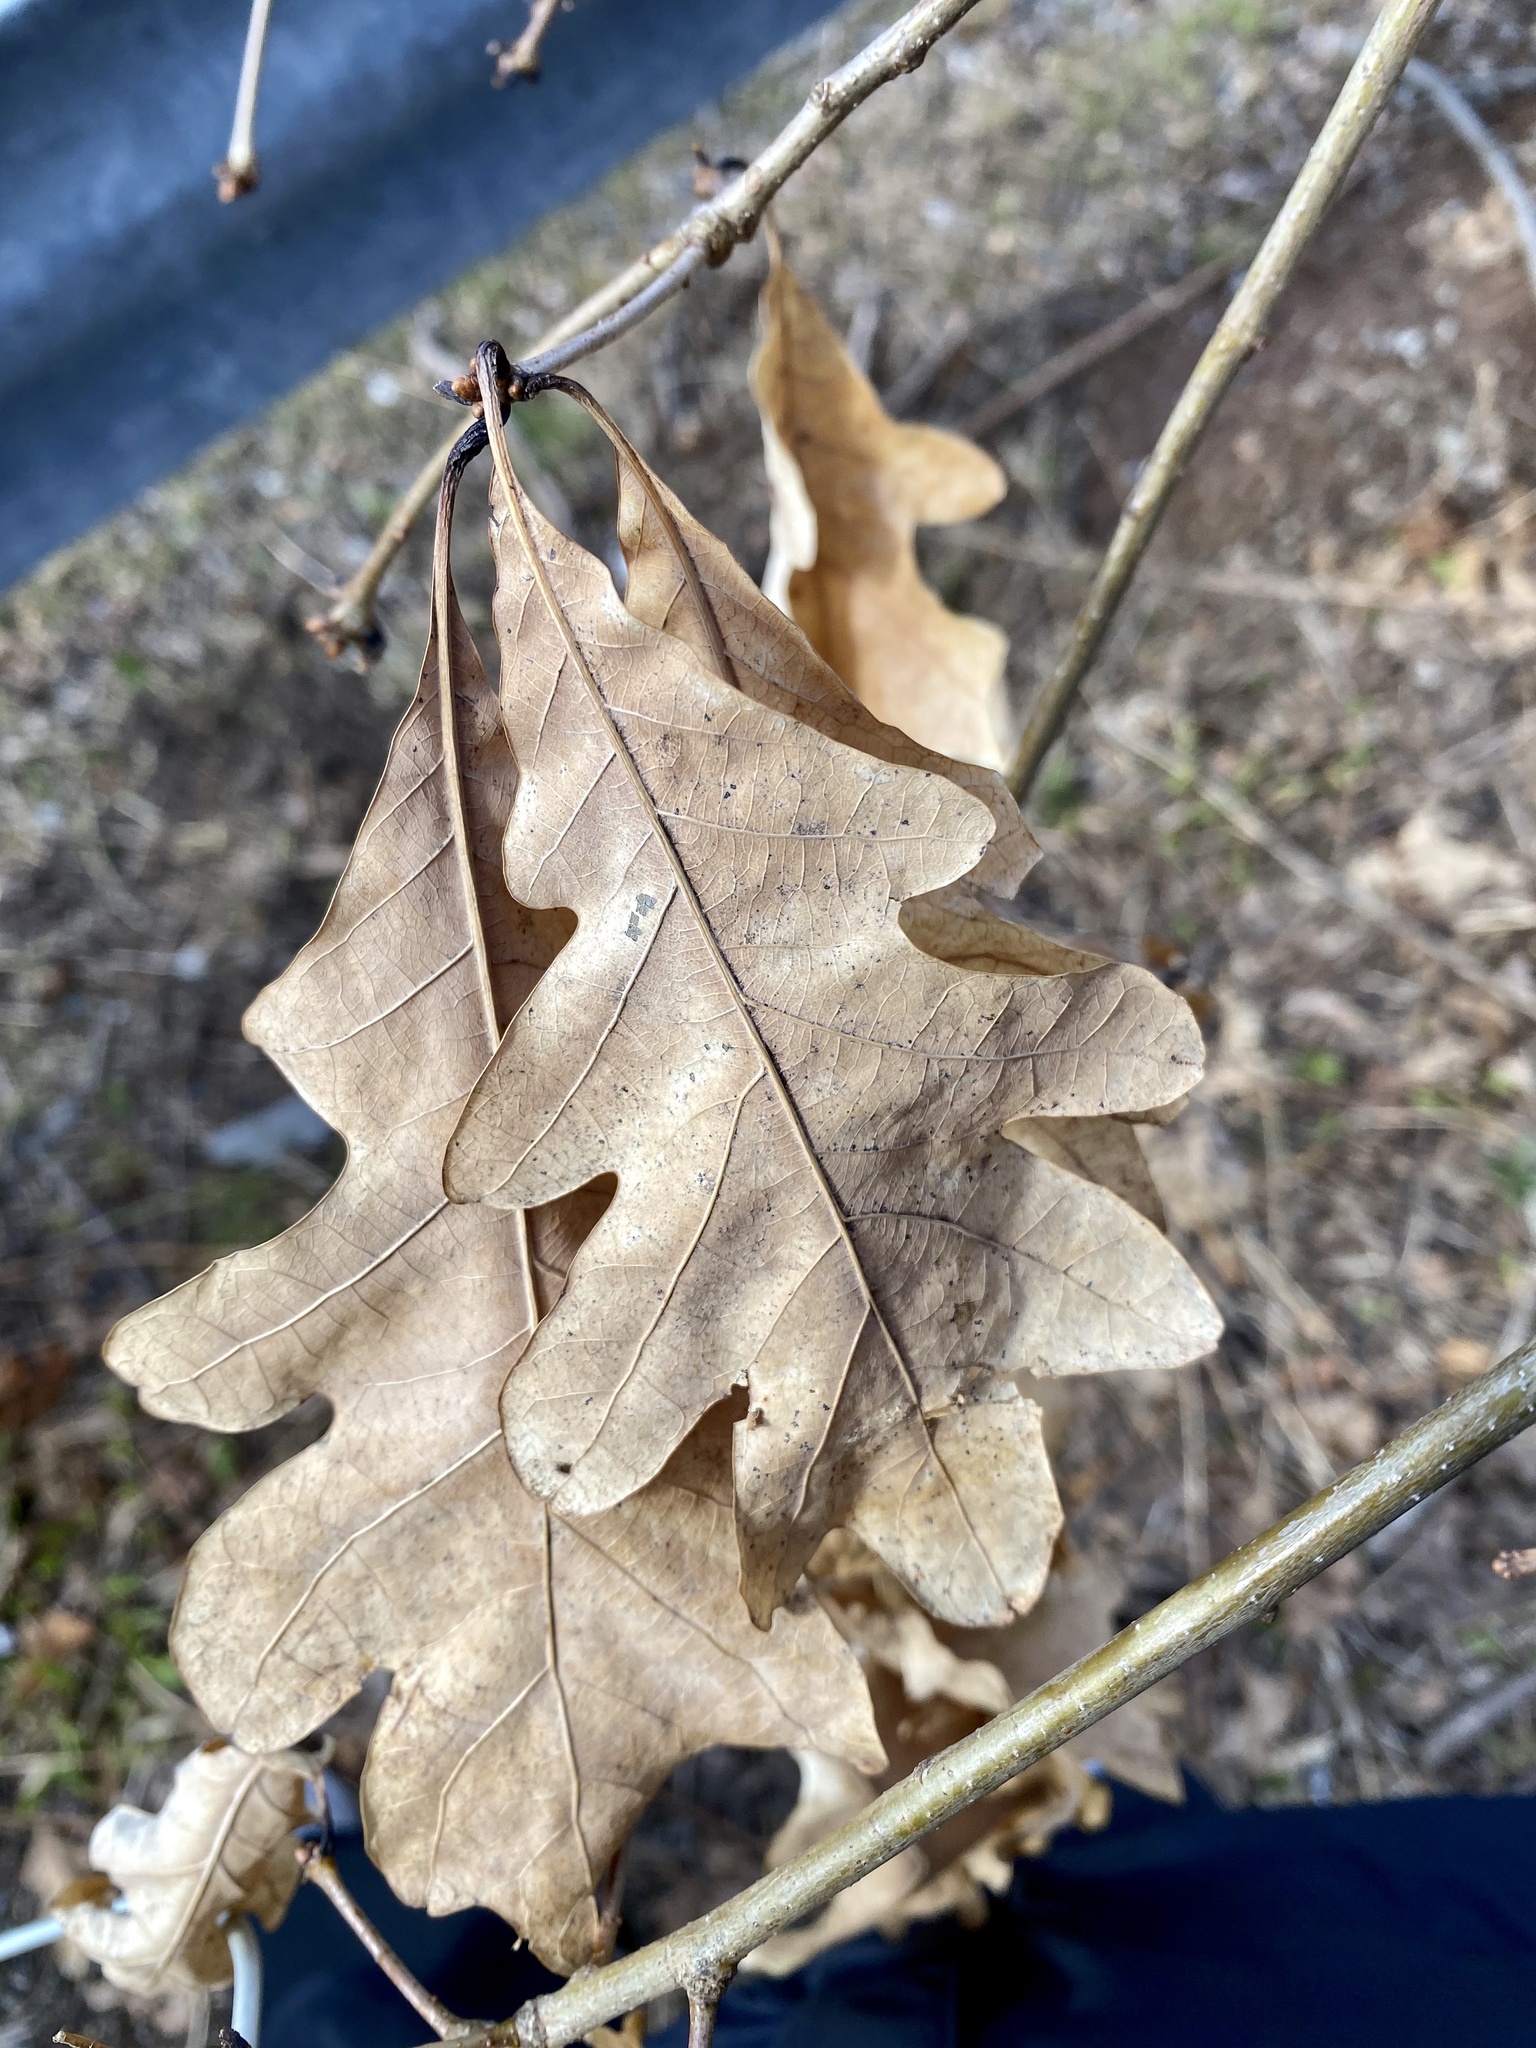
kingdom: Plantae
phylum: Tracheophyta
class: Magnoliopsida
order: Fagales
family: Fagaceae
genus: Quercus
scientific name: Quercus alba
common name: White oak
